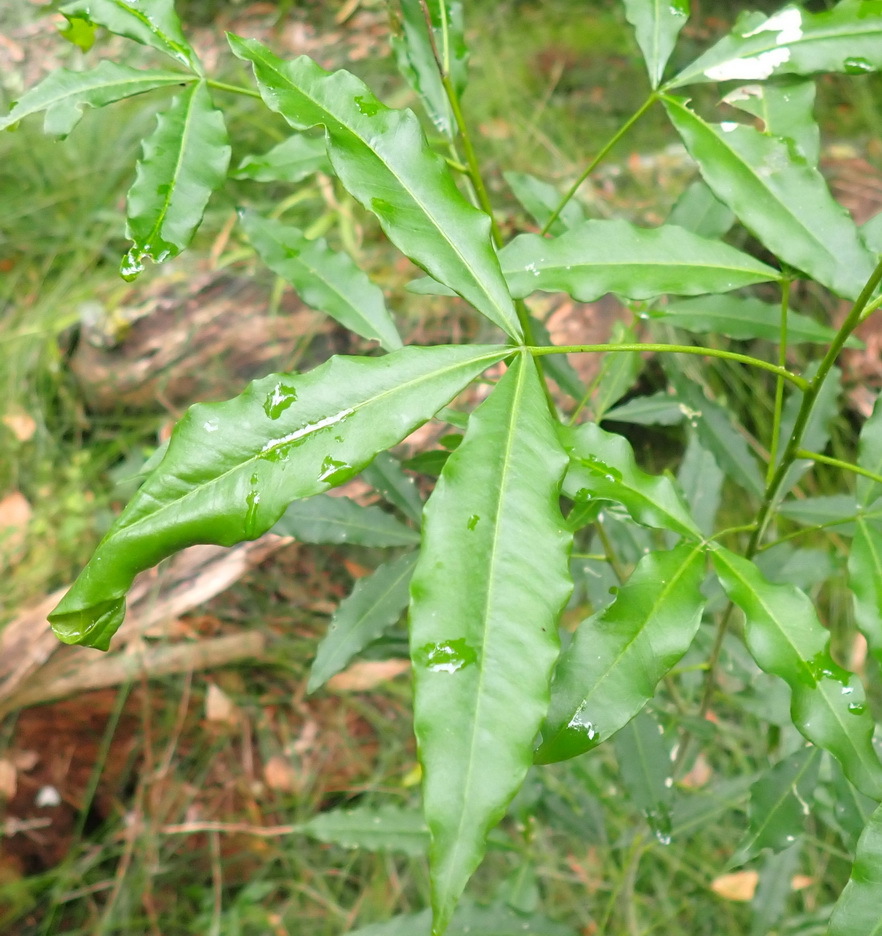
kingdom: Plantae
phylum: Tracheophyta
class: Magnoliopsida
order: Sapindales
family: Rutaceae
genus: Vepris
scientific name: Vepris lanceolata
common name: White ironwood
